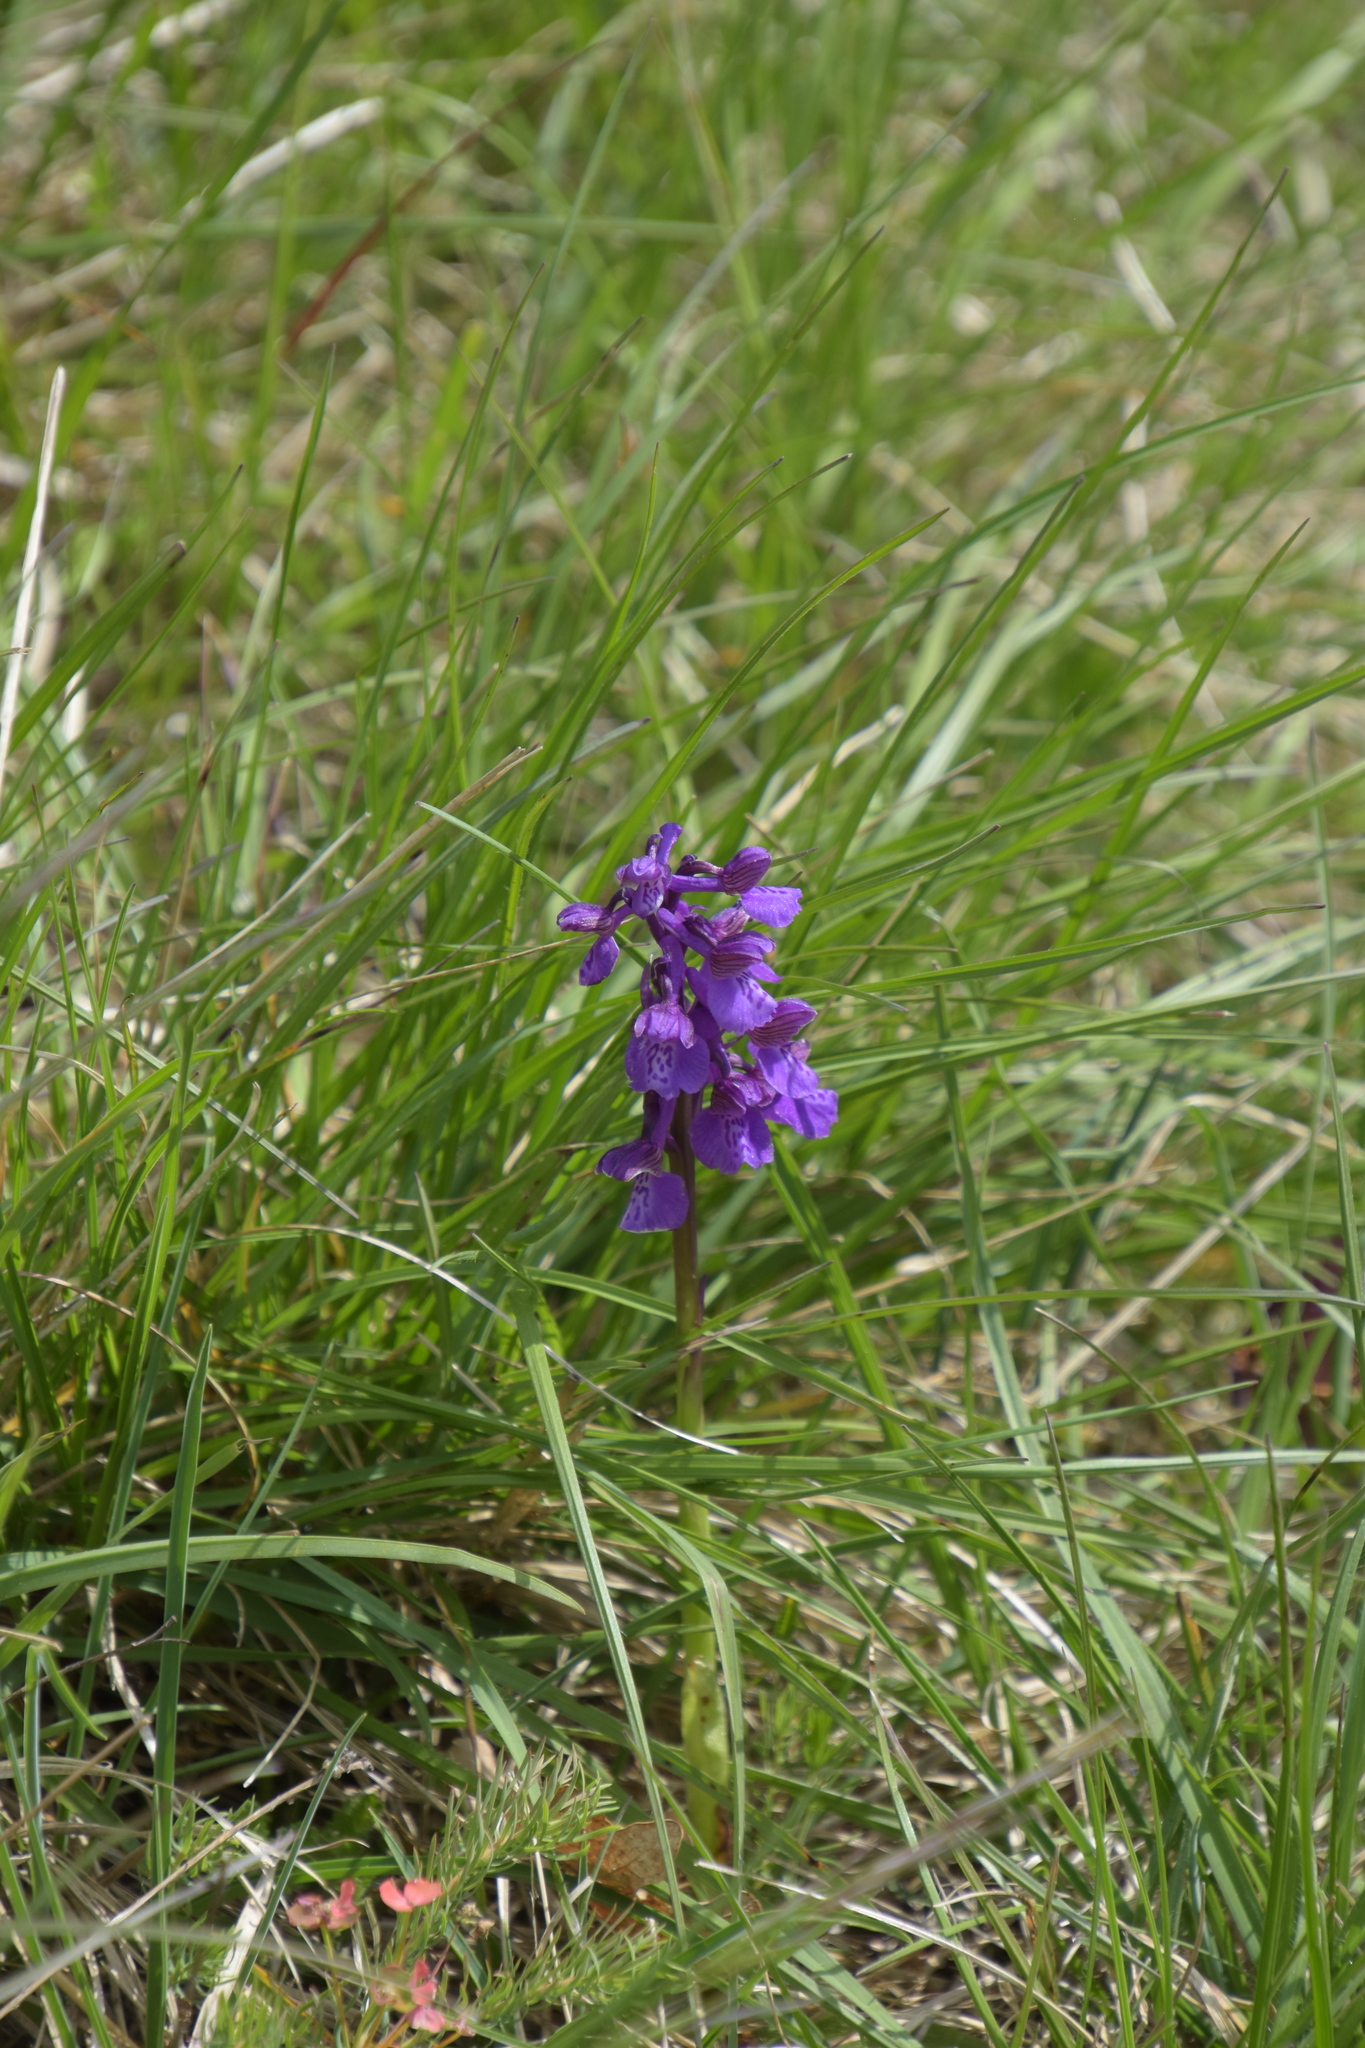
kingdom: Plantae
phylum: Tracheophyta
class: Liliopsida
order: Asparagales
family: Orchidaceae
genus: Anacamptis
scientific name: Anacamptis morio
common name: Green-winged orchid
